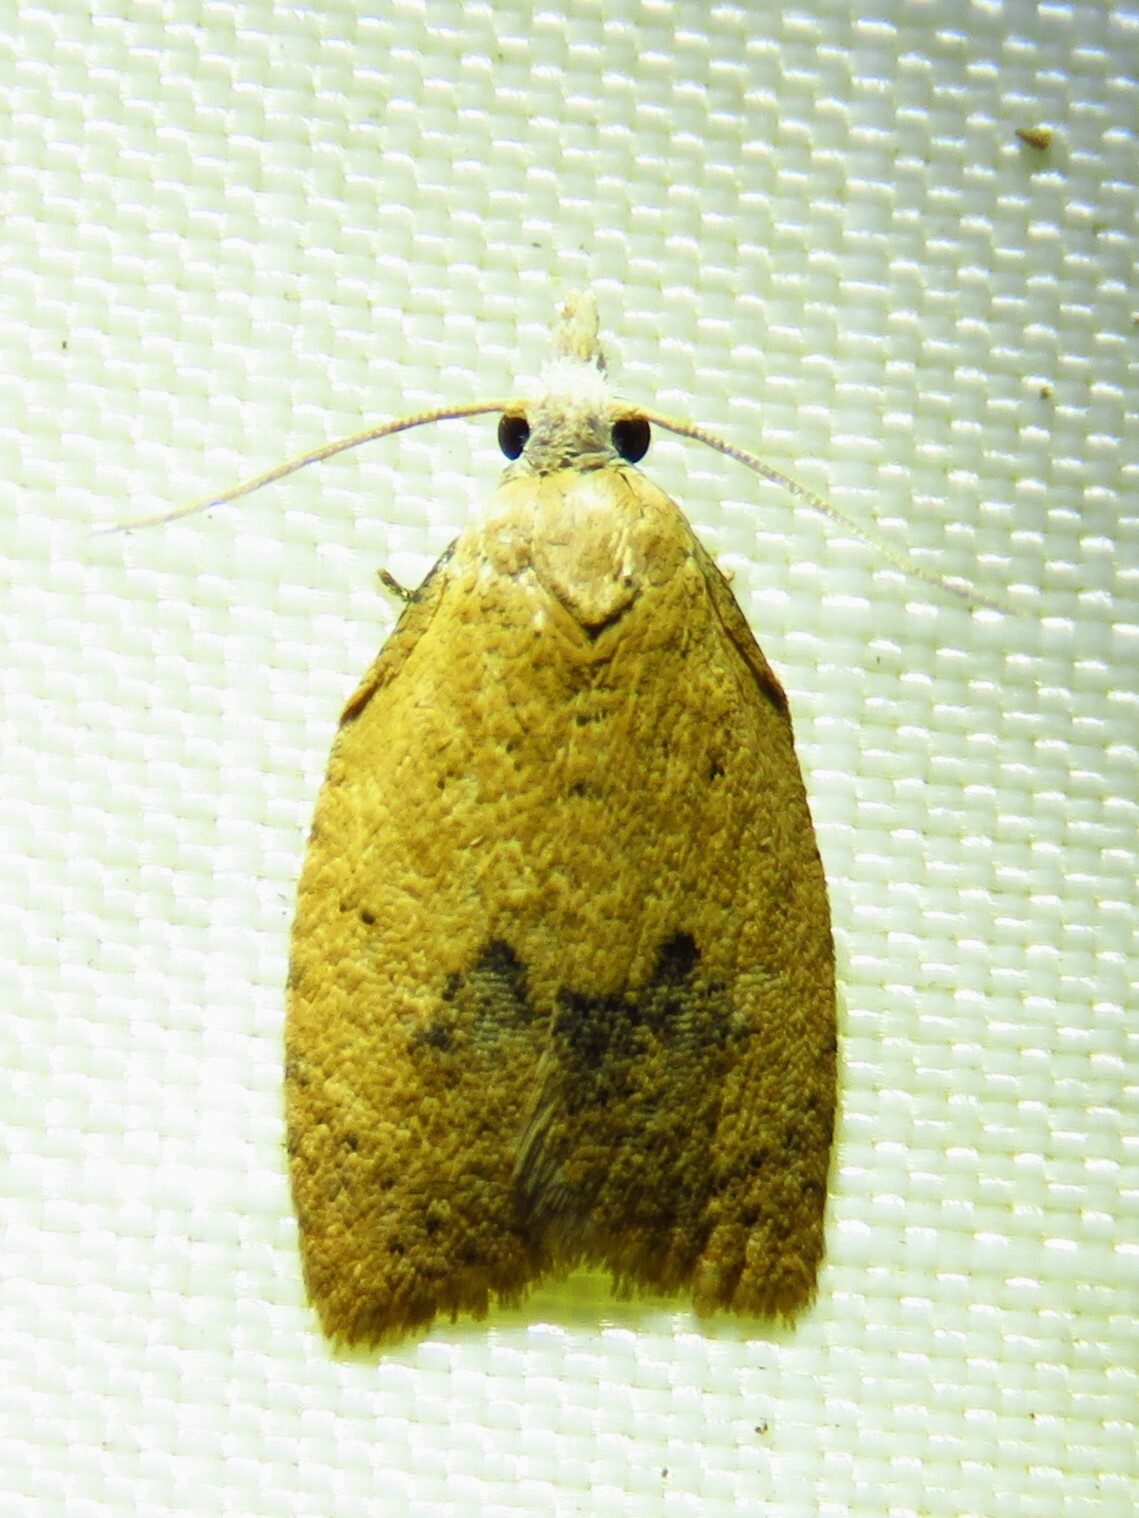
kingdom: Animalia
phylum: Arthropoda
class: Insecta
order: Lepidoptera
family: Tortricidae
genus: Sparganothoides
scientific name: Sparganothoides lentiginosana
